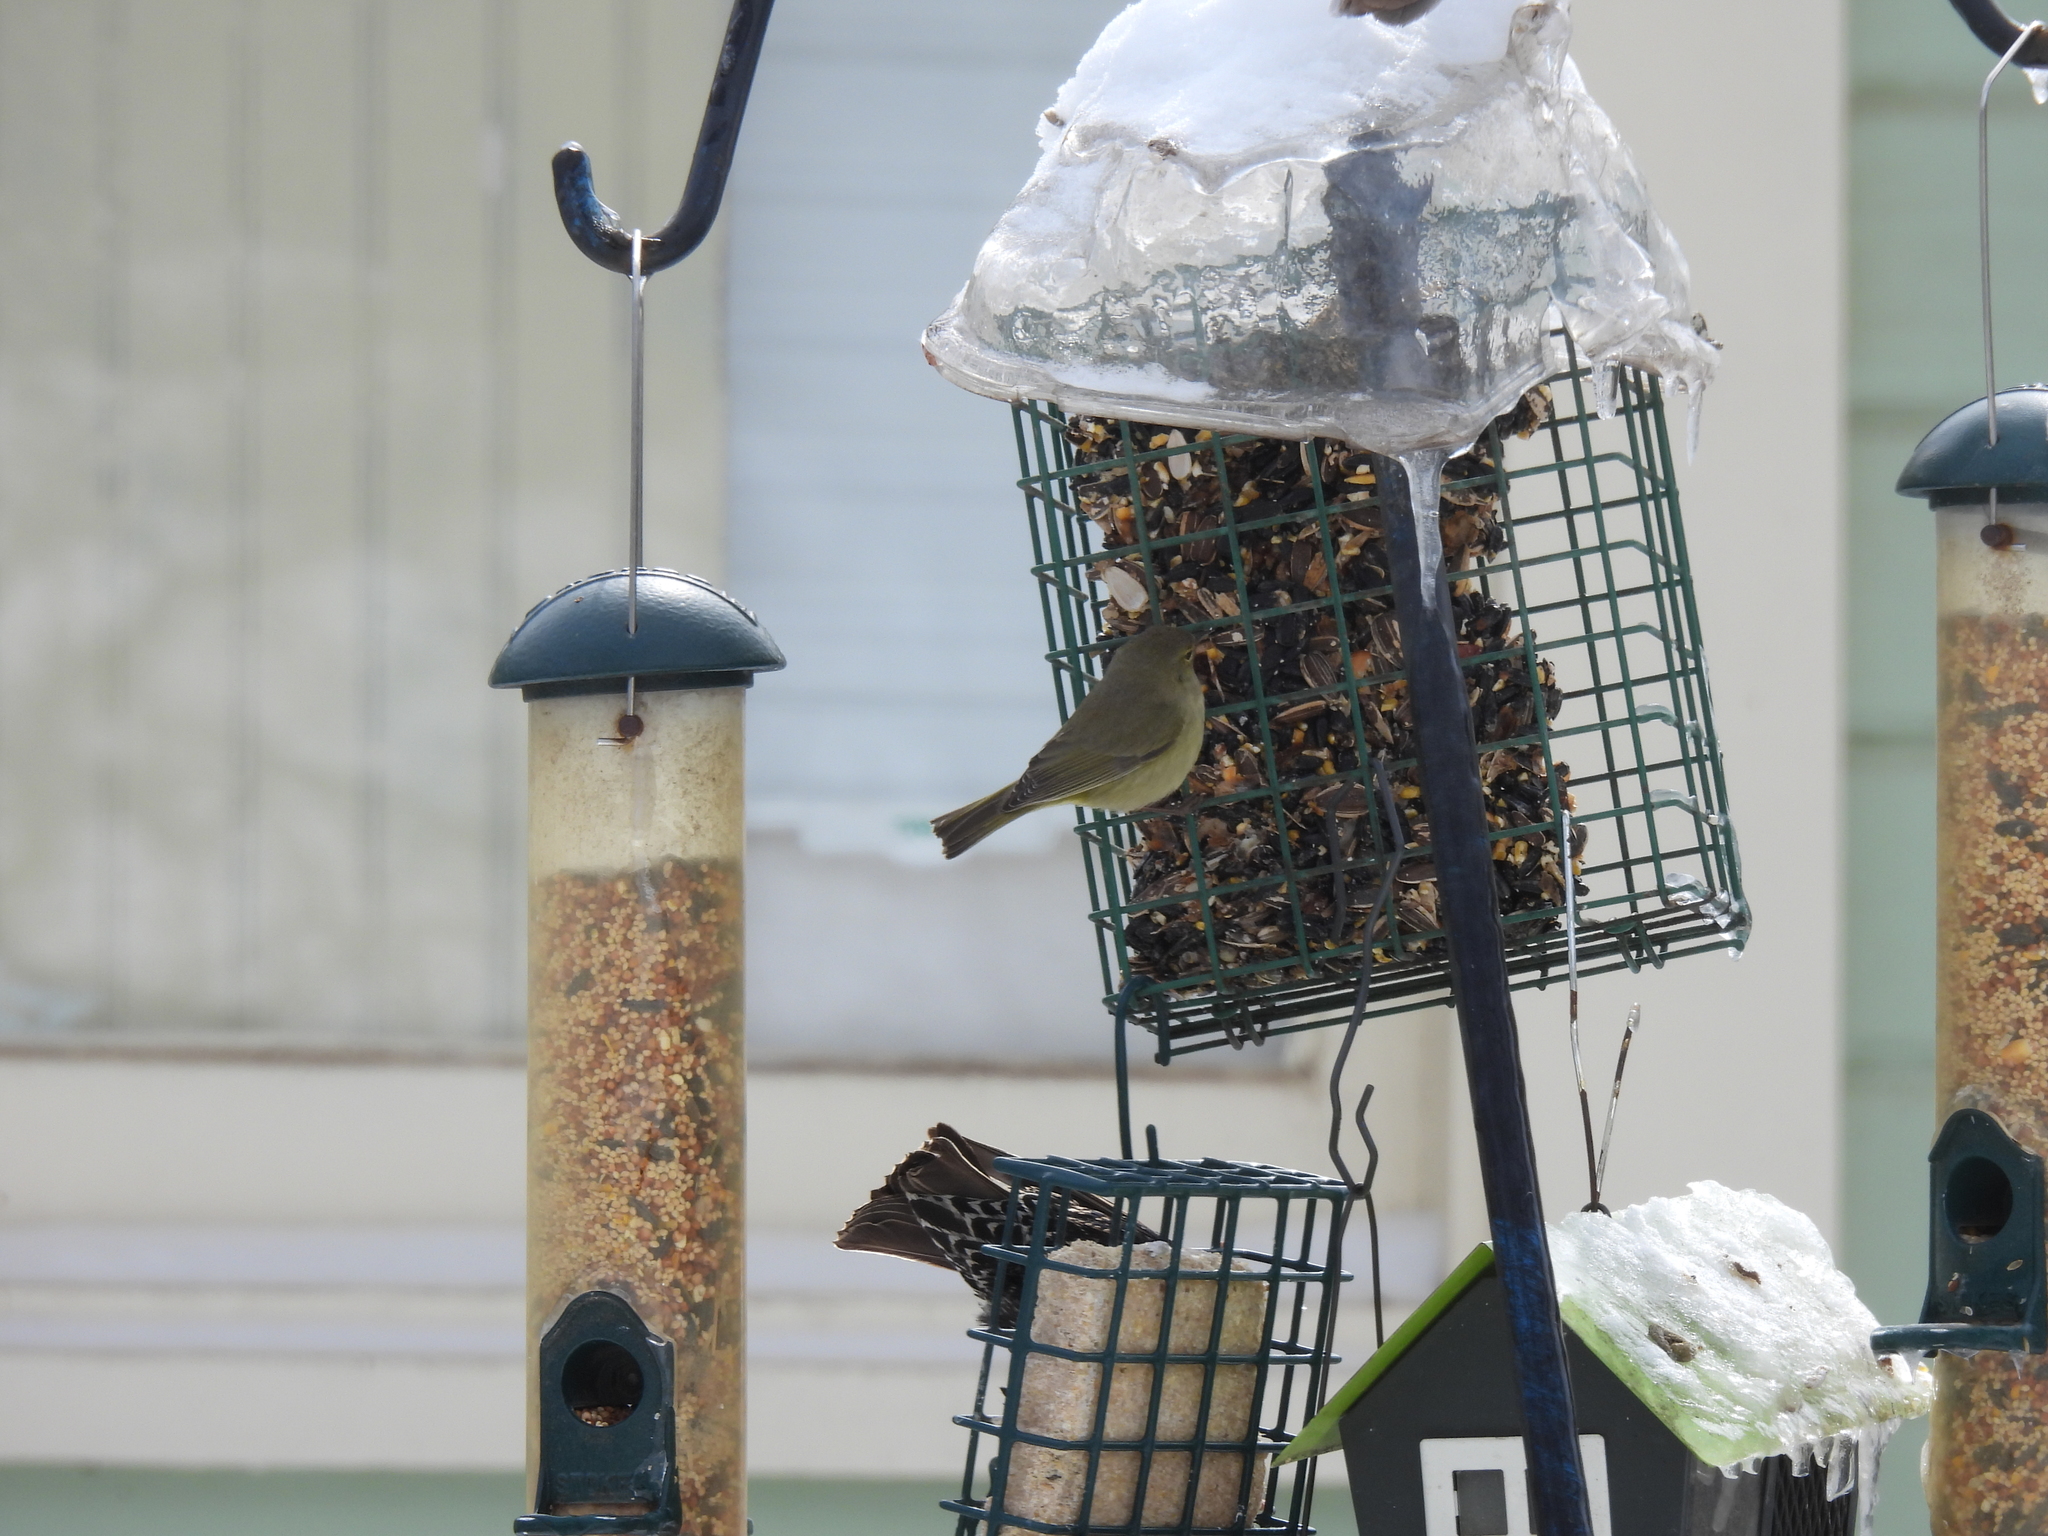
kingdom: Animalia
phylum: Chordata
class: Aves
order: Passeriformes
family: Parulidae
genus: Leiothlypis
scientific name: Leiothlypis celata
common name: Orange-crowned warbler
